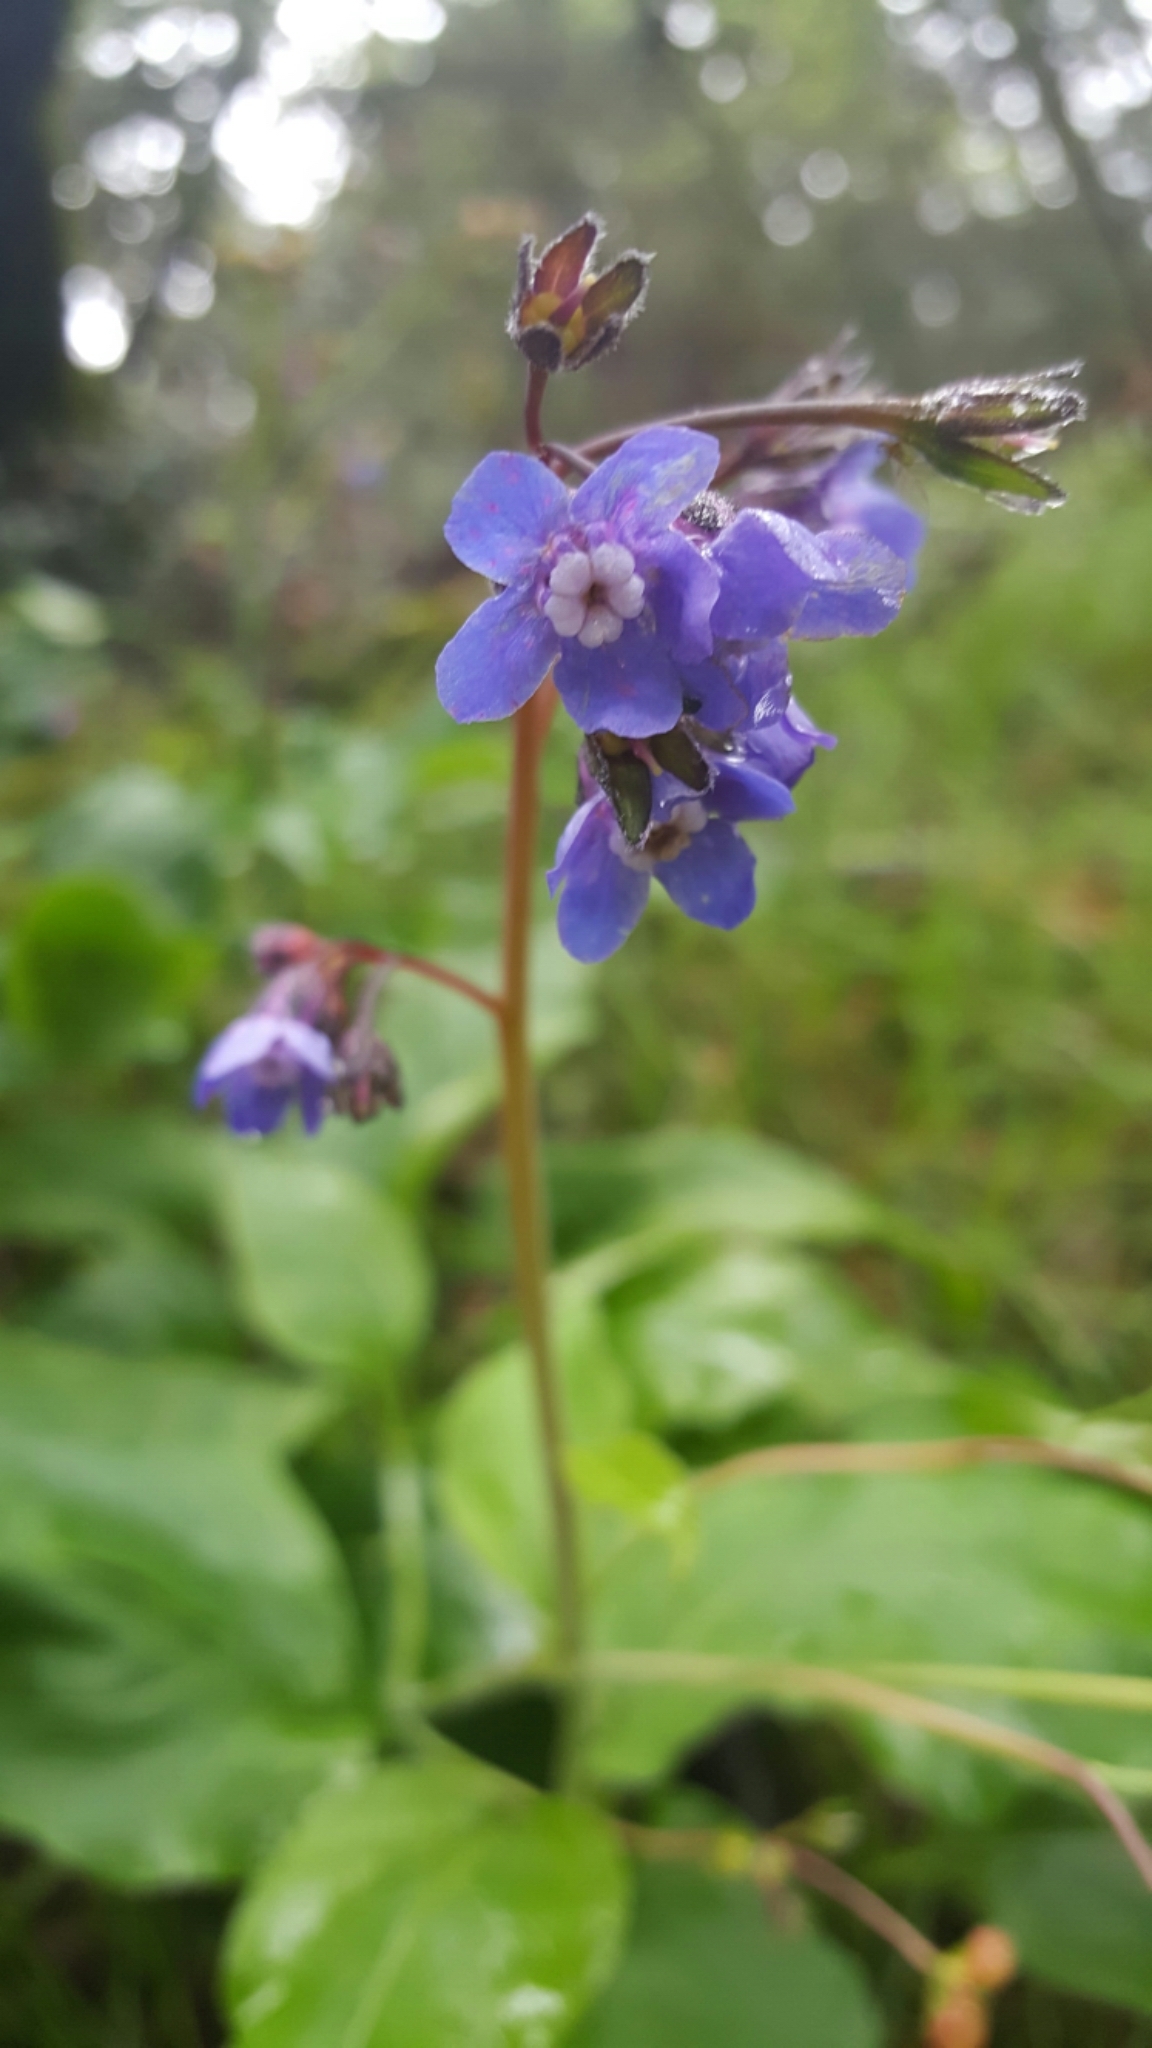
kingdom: Plantae
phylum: Tracheophyta
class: Magnoliopsida
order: Boraginales
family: Boraginaceae
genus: Adelinia
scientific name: Adelinia grande
